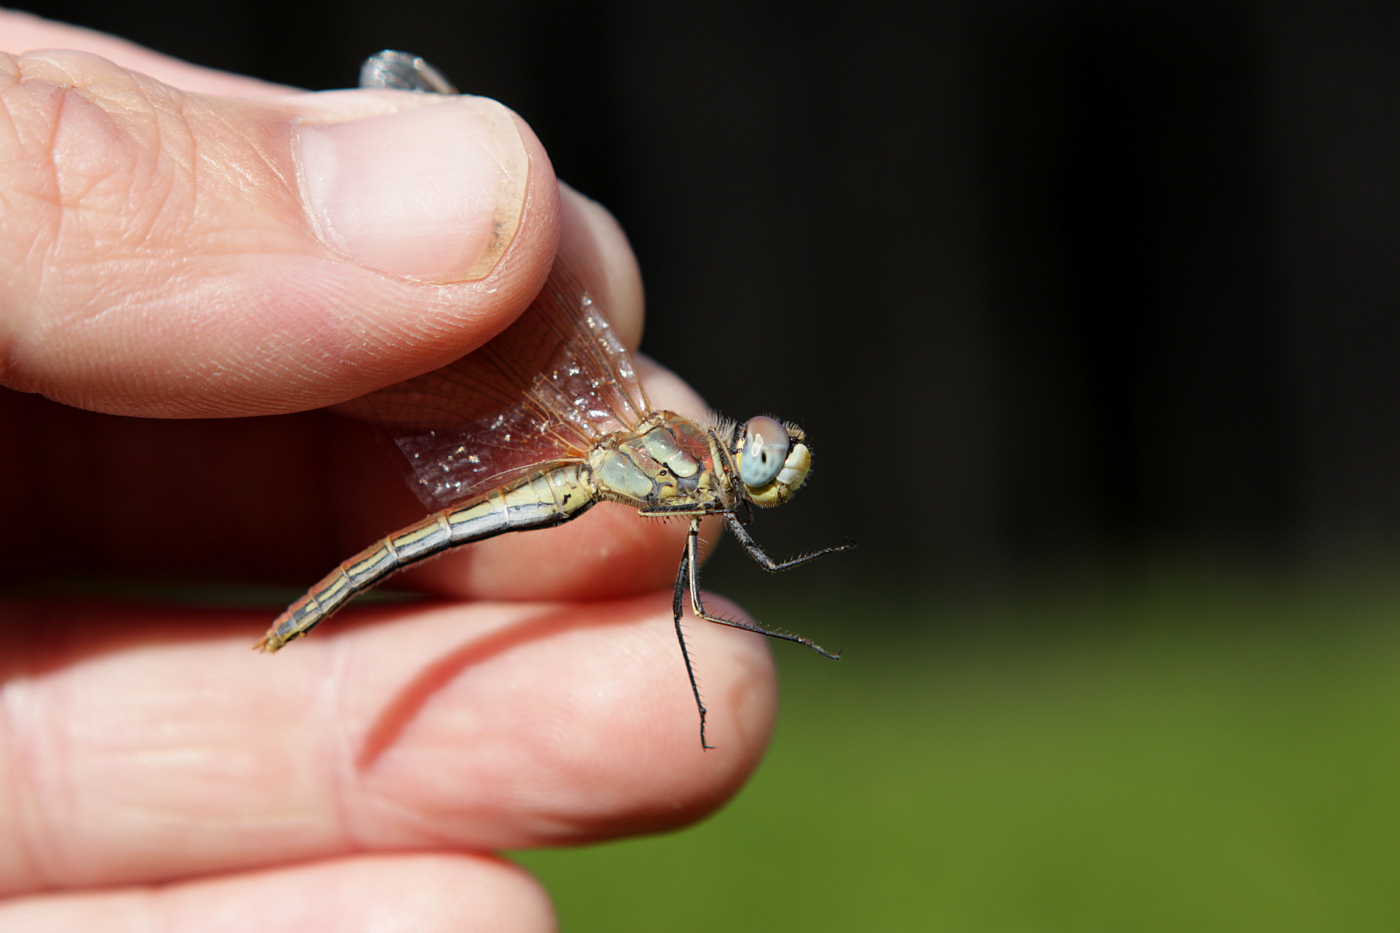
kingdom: Animalia
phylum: Arthropoda
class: Insecta
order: Odonata
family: Libellulidae
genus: Sympetrum
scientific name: Sympetrum fonscolombii
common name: Red-veined darter
